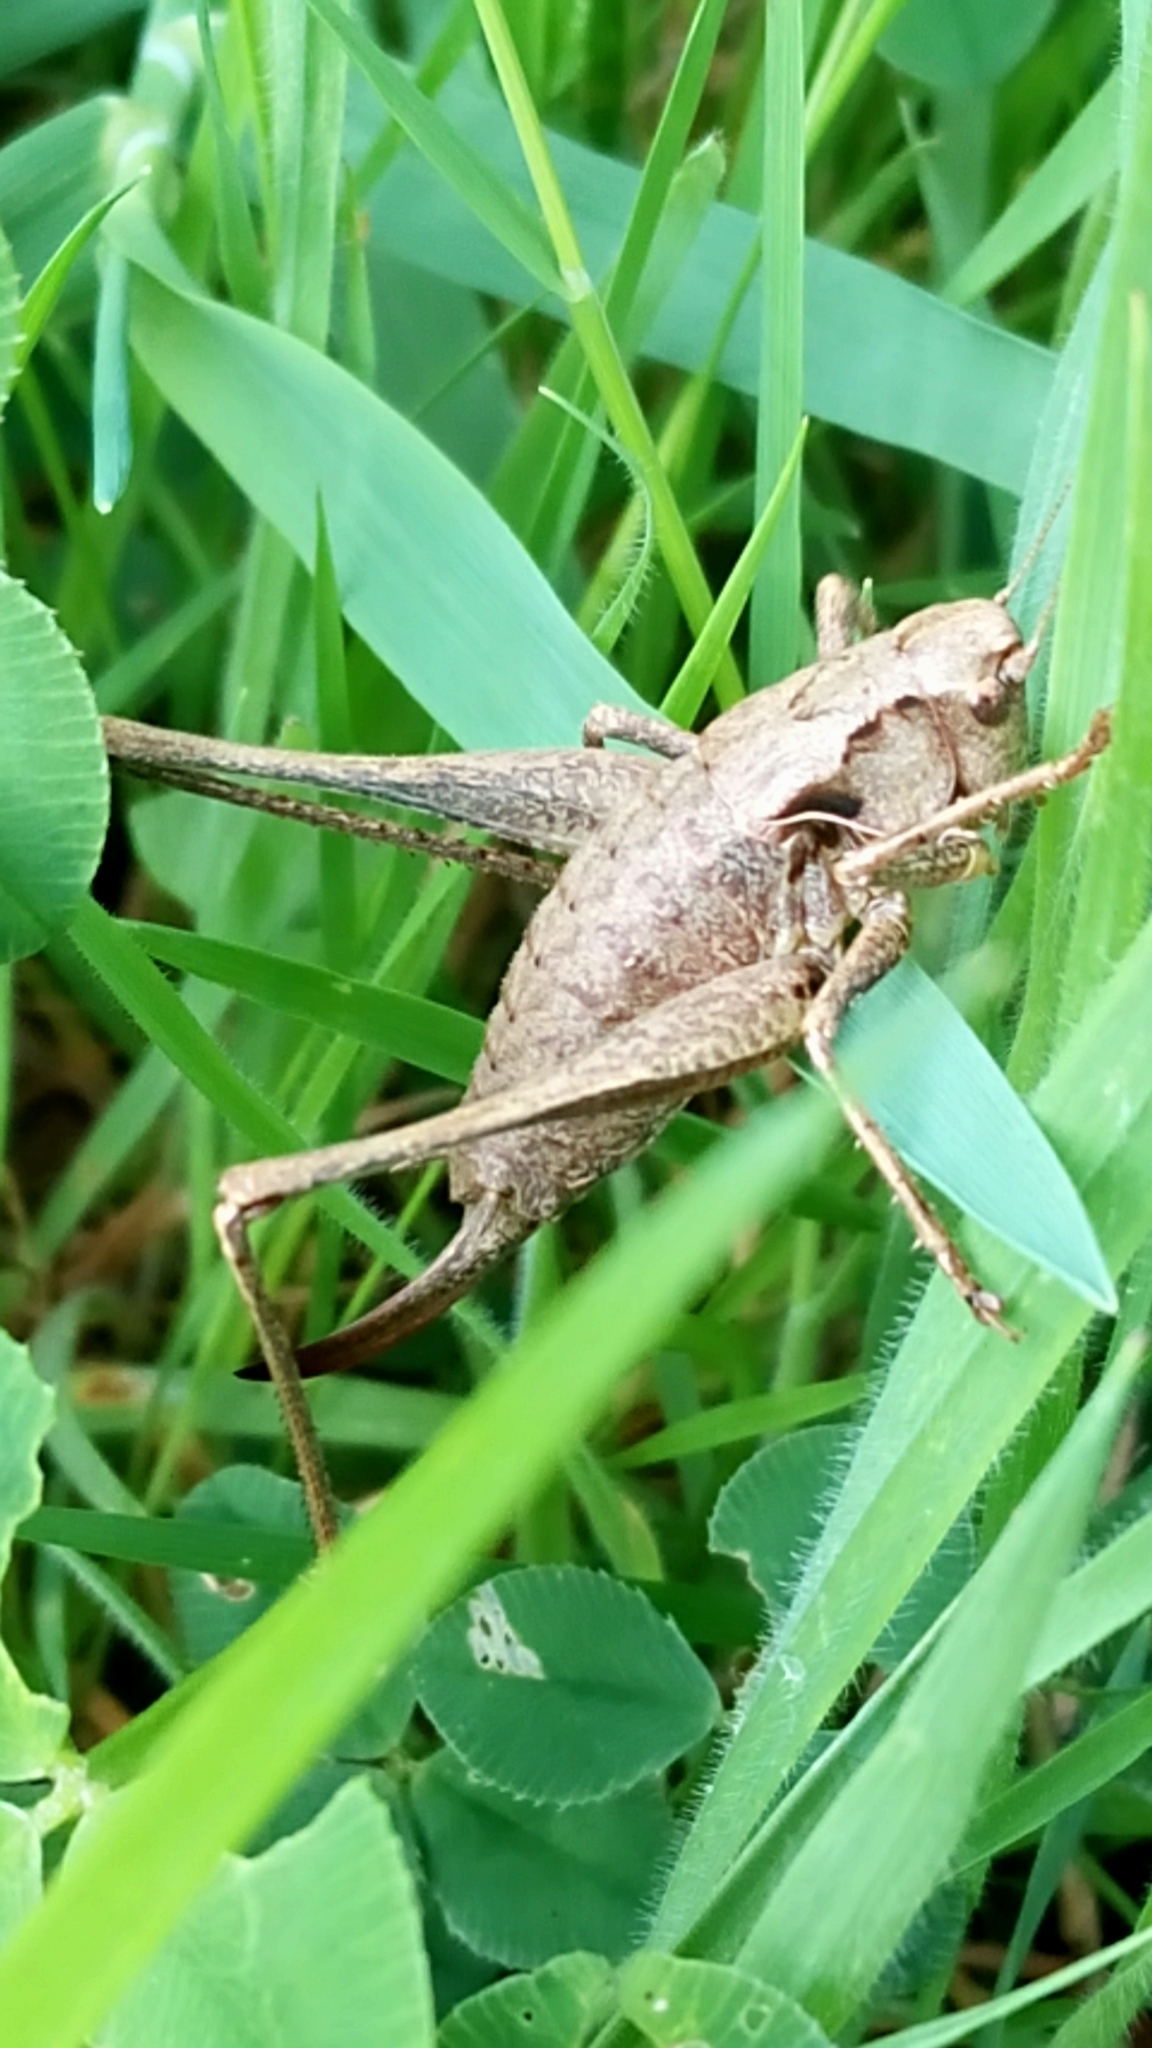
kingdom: Animalia
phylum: Arthropoda
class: Insecta
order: Orthoptera
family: Tettigoniidae
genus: Pholidoptera
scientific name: Pholidoptera griseoaptera
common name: Dark bush-cricket
